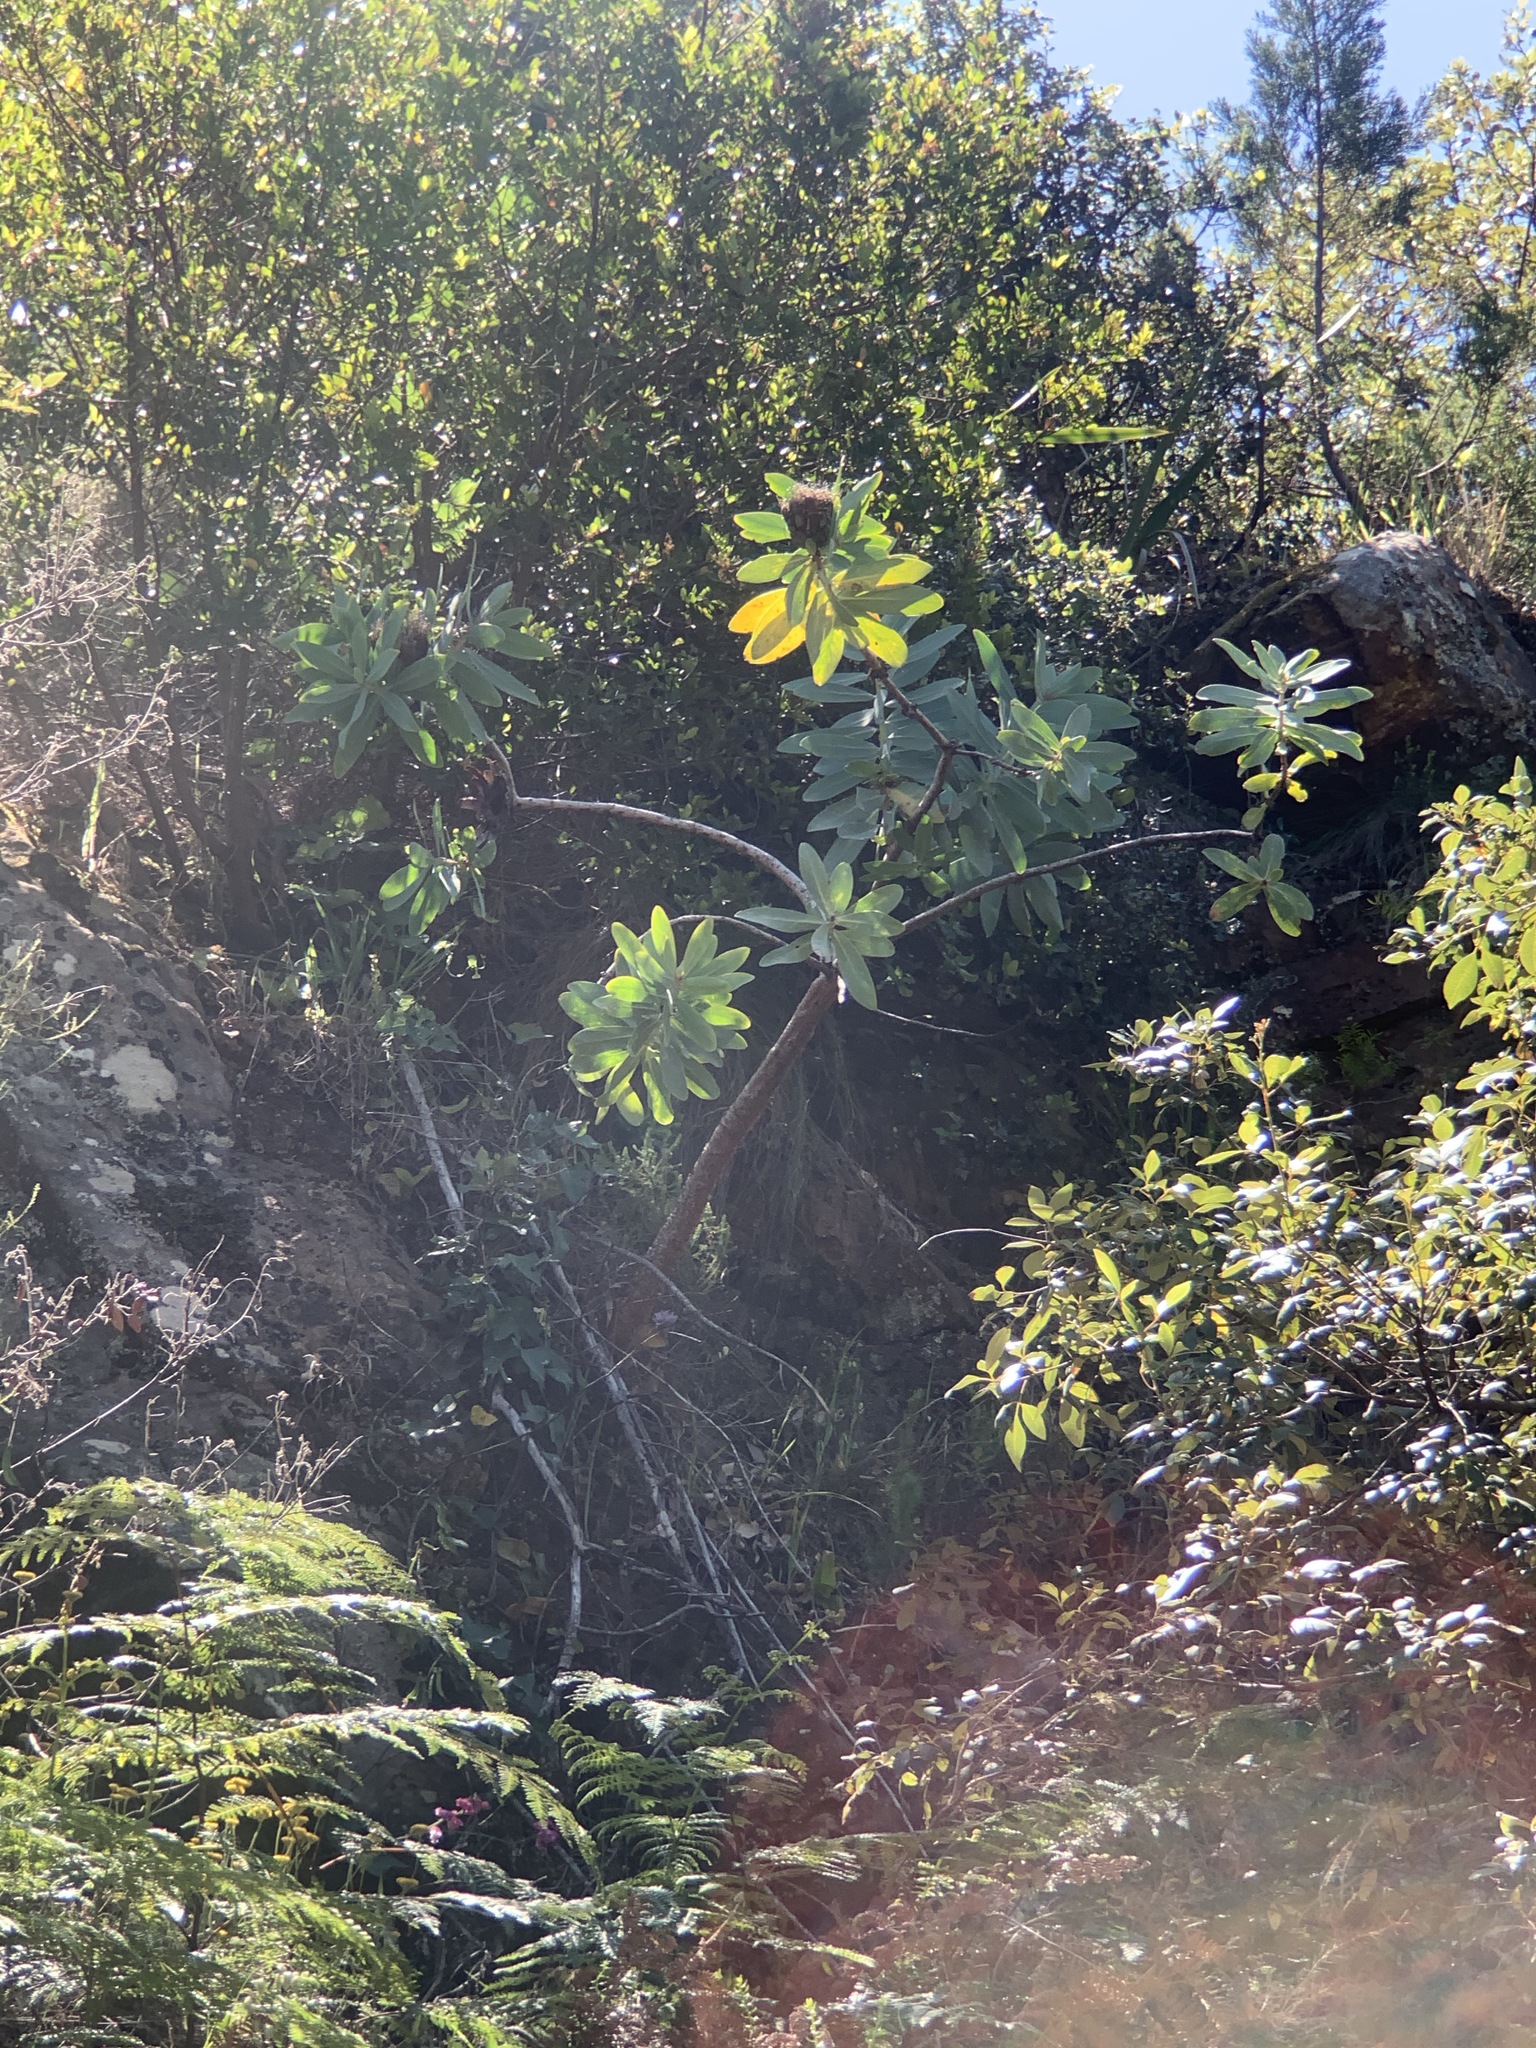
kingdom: Plantae
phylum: Tracheophyta
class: Magnoliopsida
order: Proteales
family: Proteaceae
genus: Protea
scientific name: Protea nitida
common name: Tree protea
